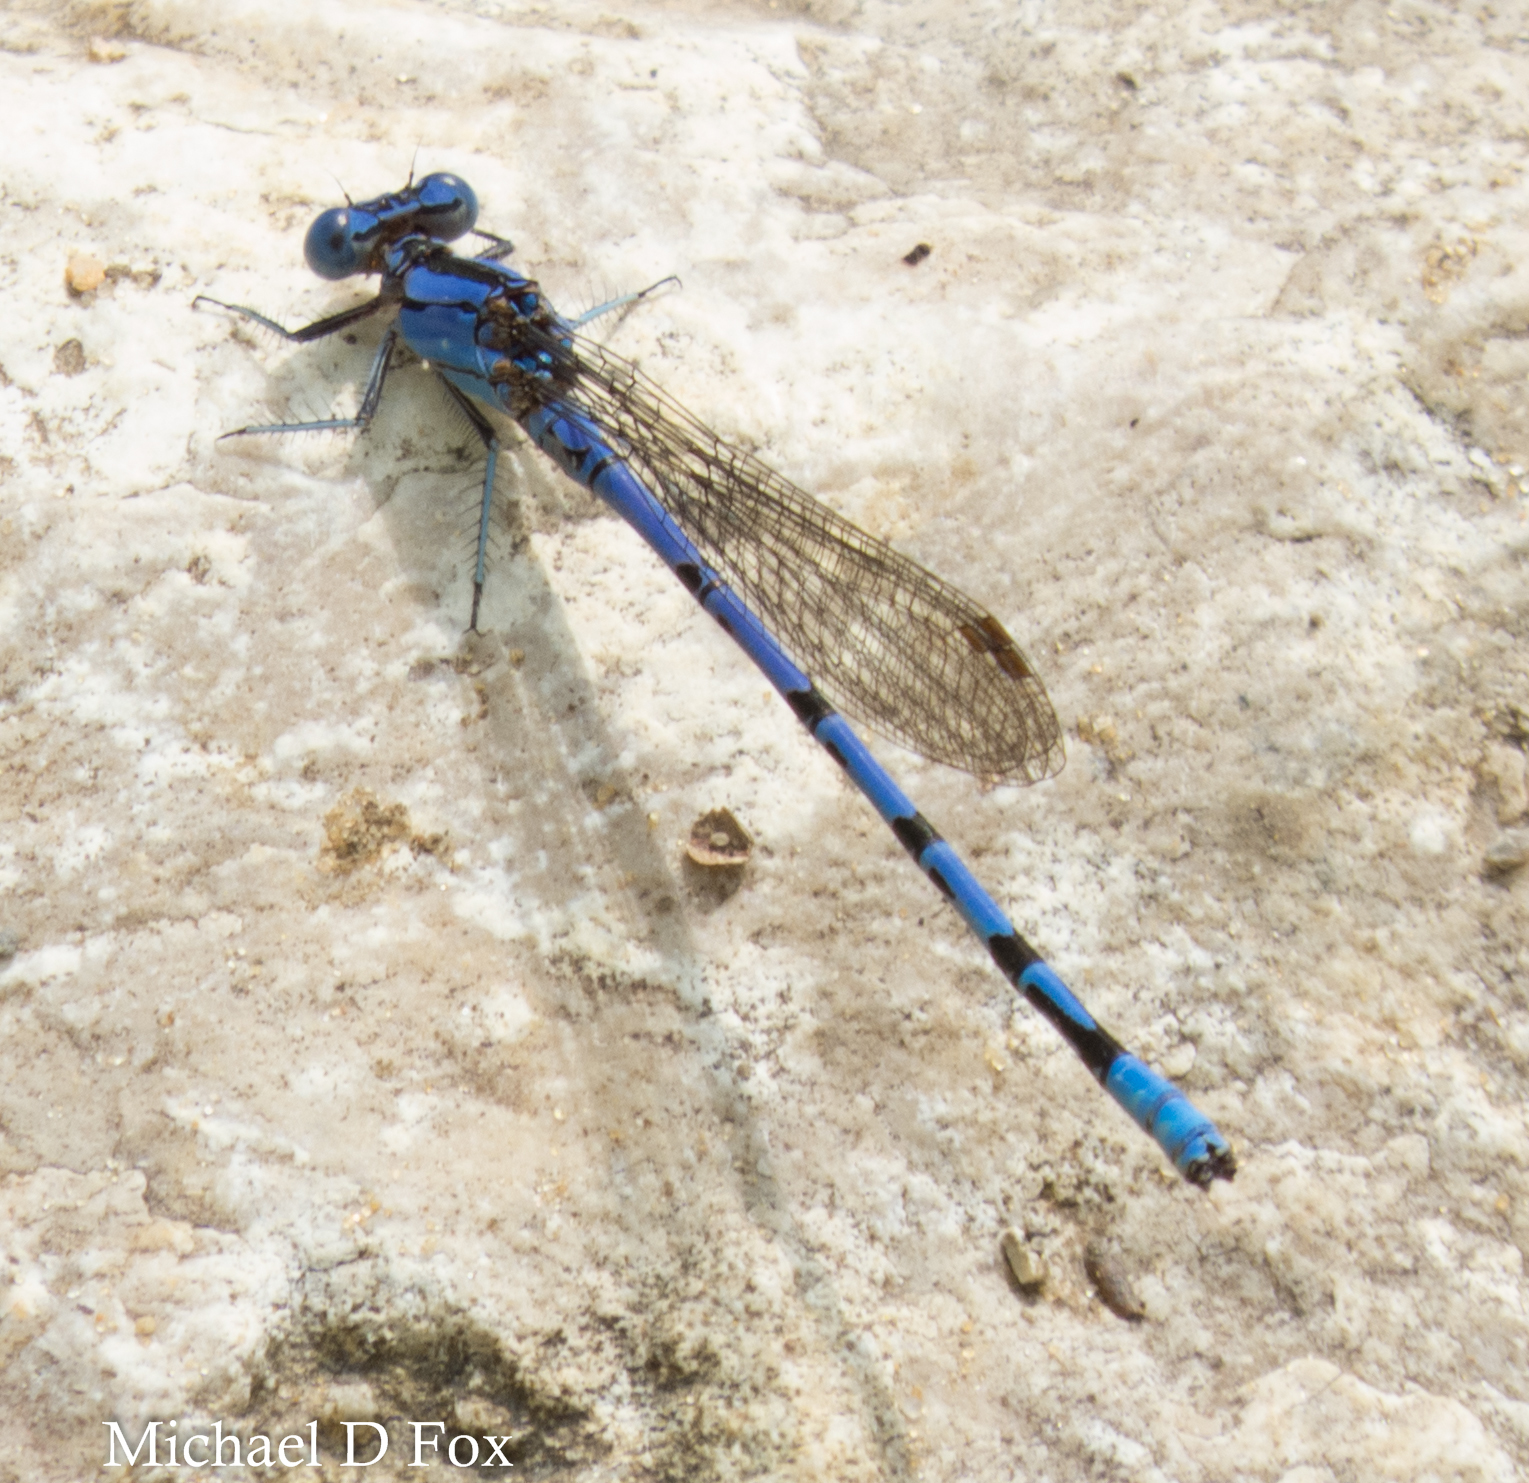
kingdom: Animalia
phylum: Arthropoda
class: Insecta
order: Odonata
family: Coenagrionidae
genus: Argia
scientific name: Argia funebris
